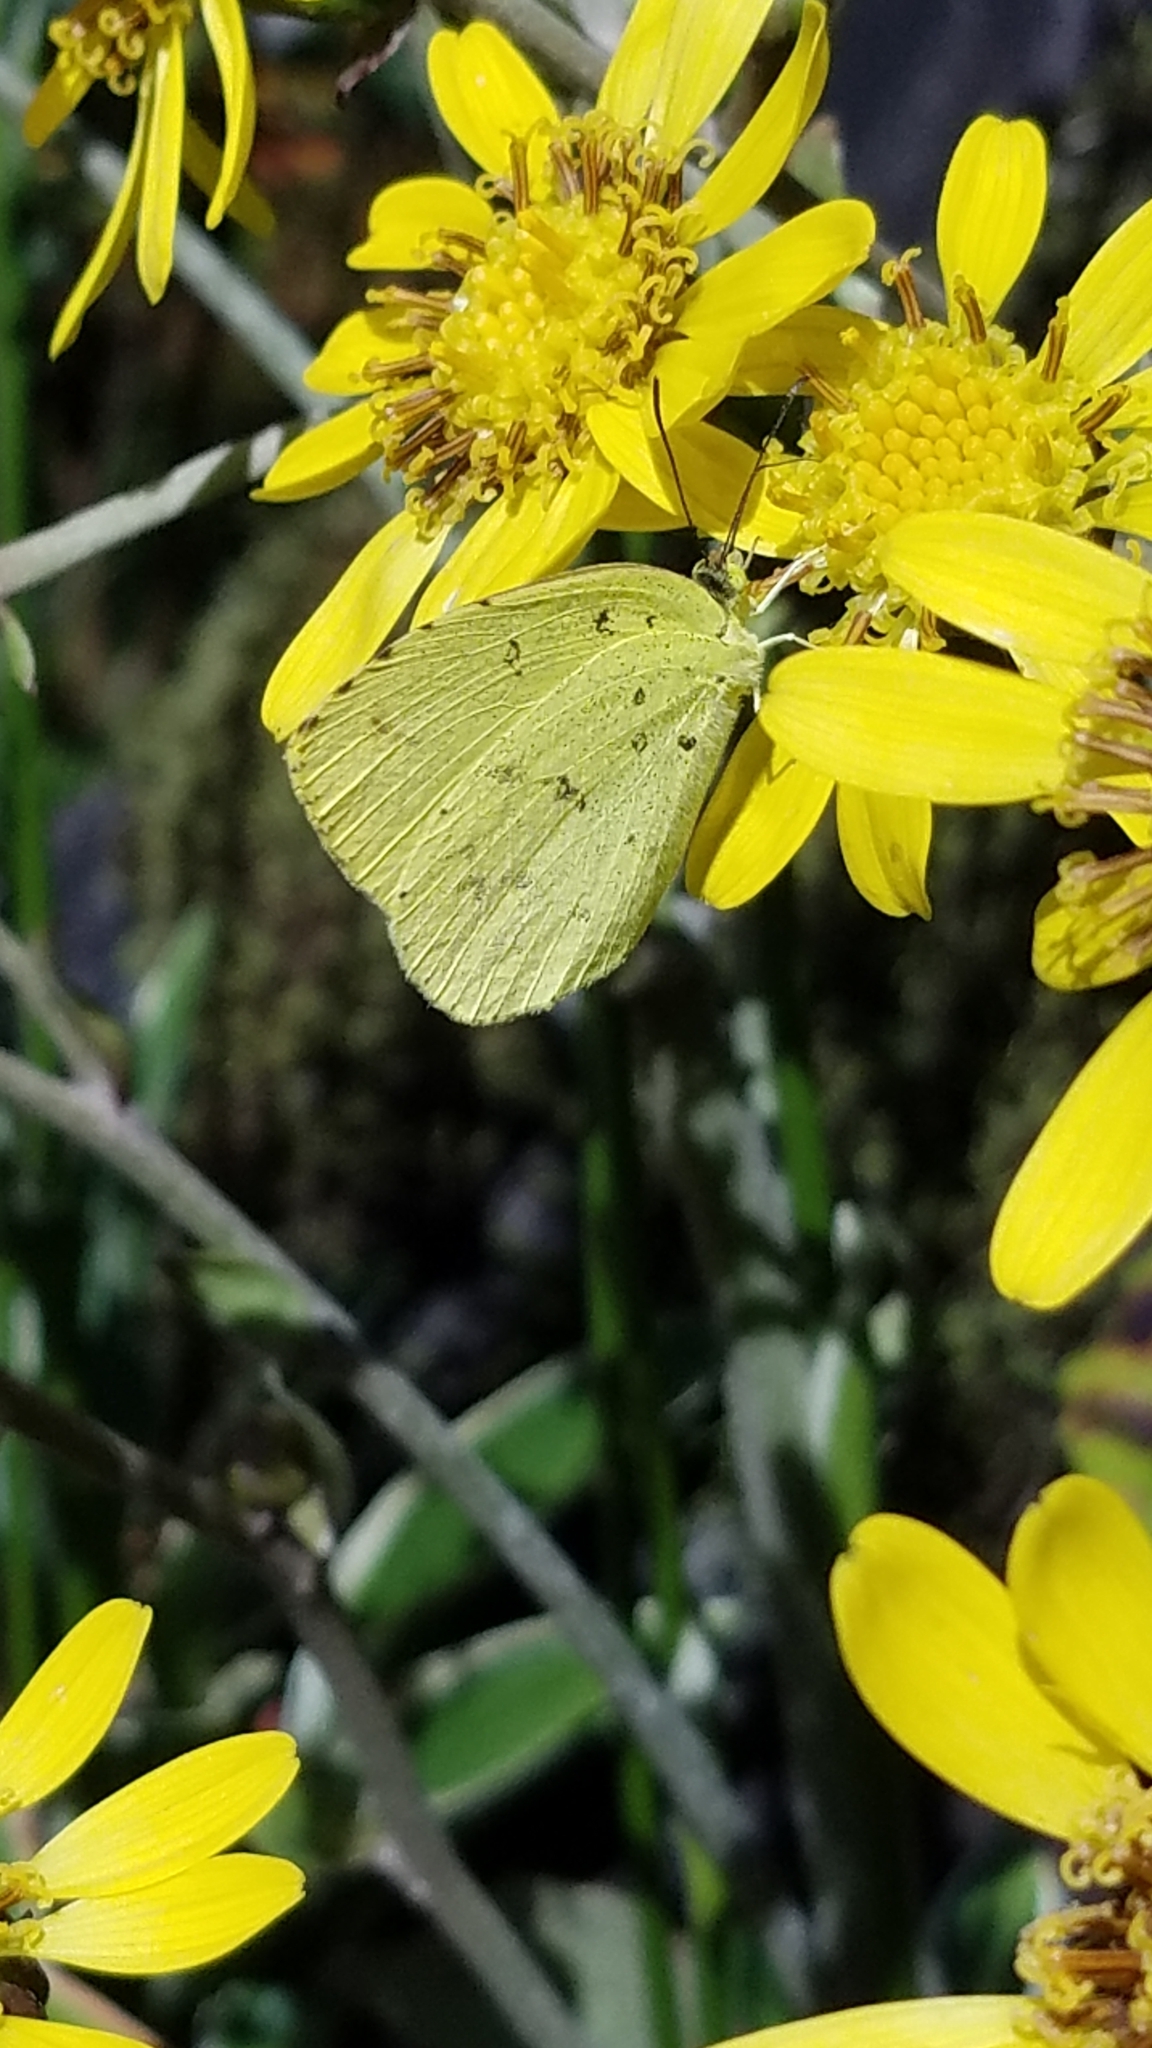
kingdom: Animalia
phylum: Arthropoda
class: Insecta
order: Lepidoptera
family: Pieridae
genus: Eurema
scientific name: Eurema mandarina
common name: Japanese common grass yellow
